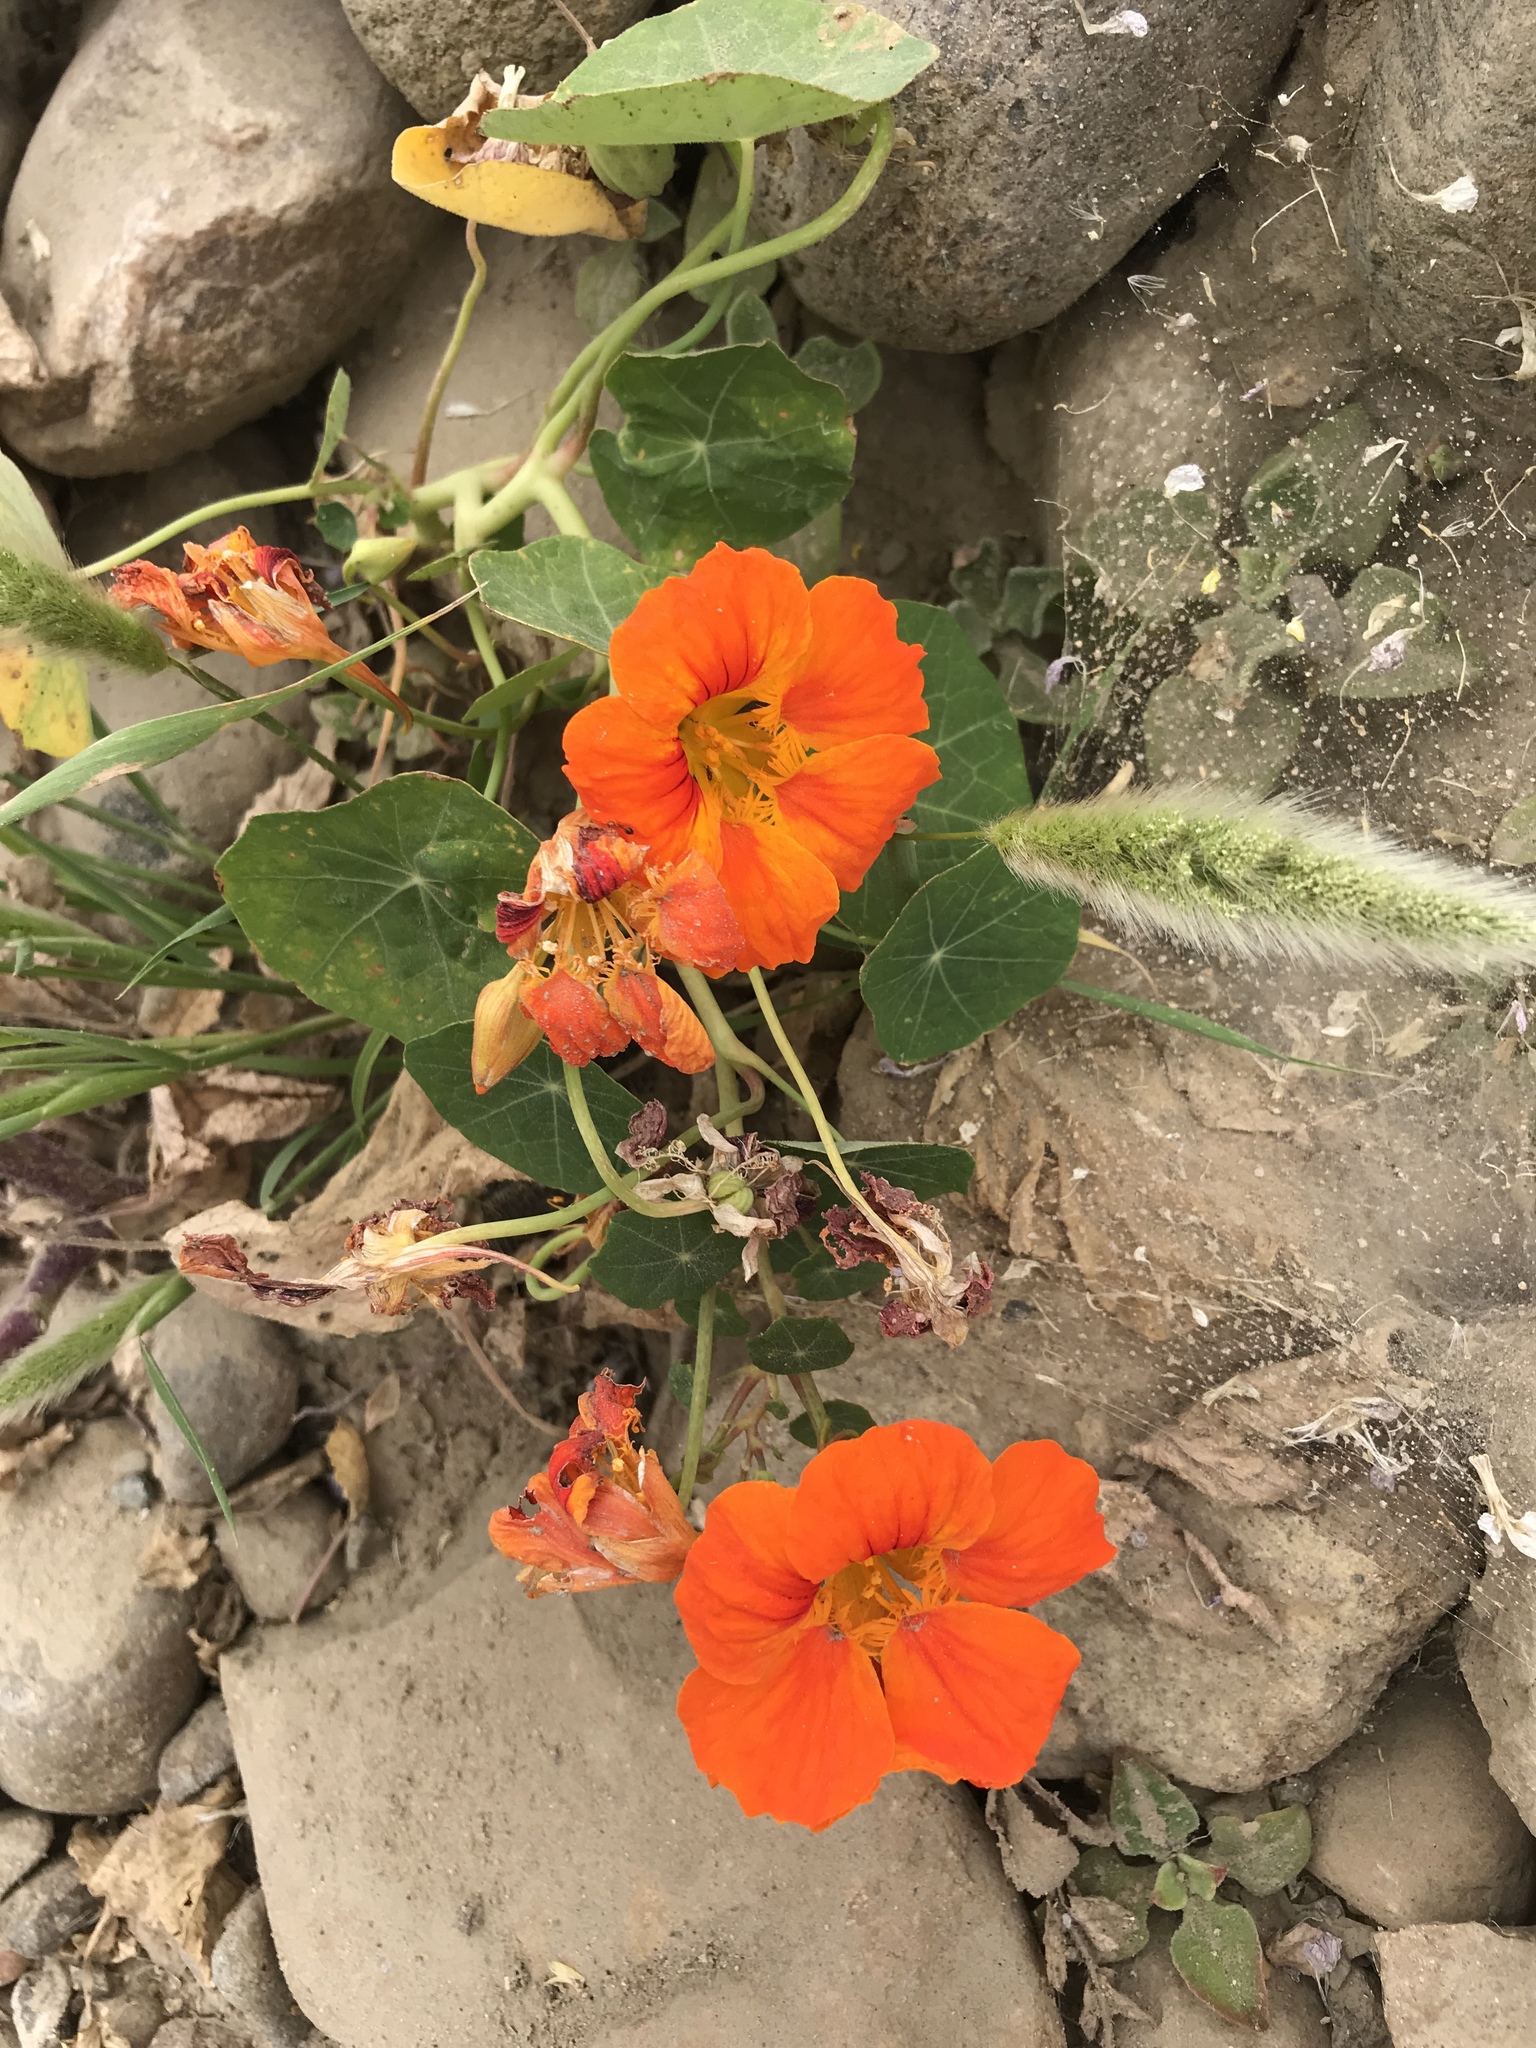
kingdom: Plantae
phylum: Tracheophyta
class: Magnoliopsida
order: Brassicales
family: Tropaeolaceae
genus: Tropaeolum
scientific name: Tropaeolum majus
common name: Nasturtium
